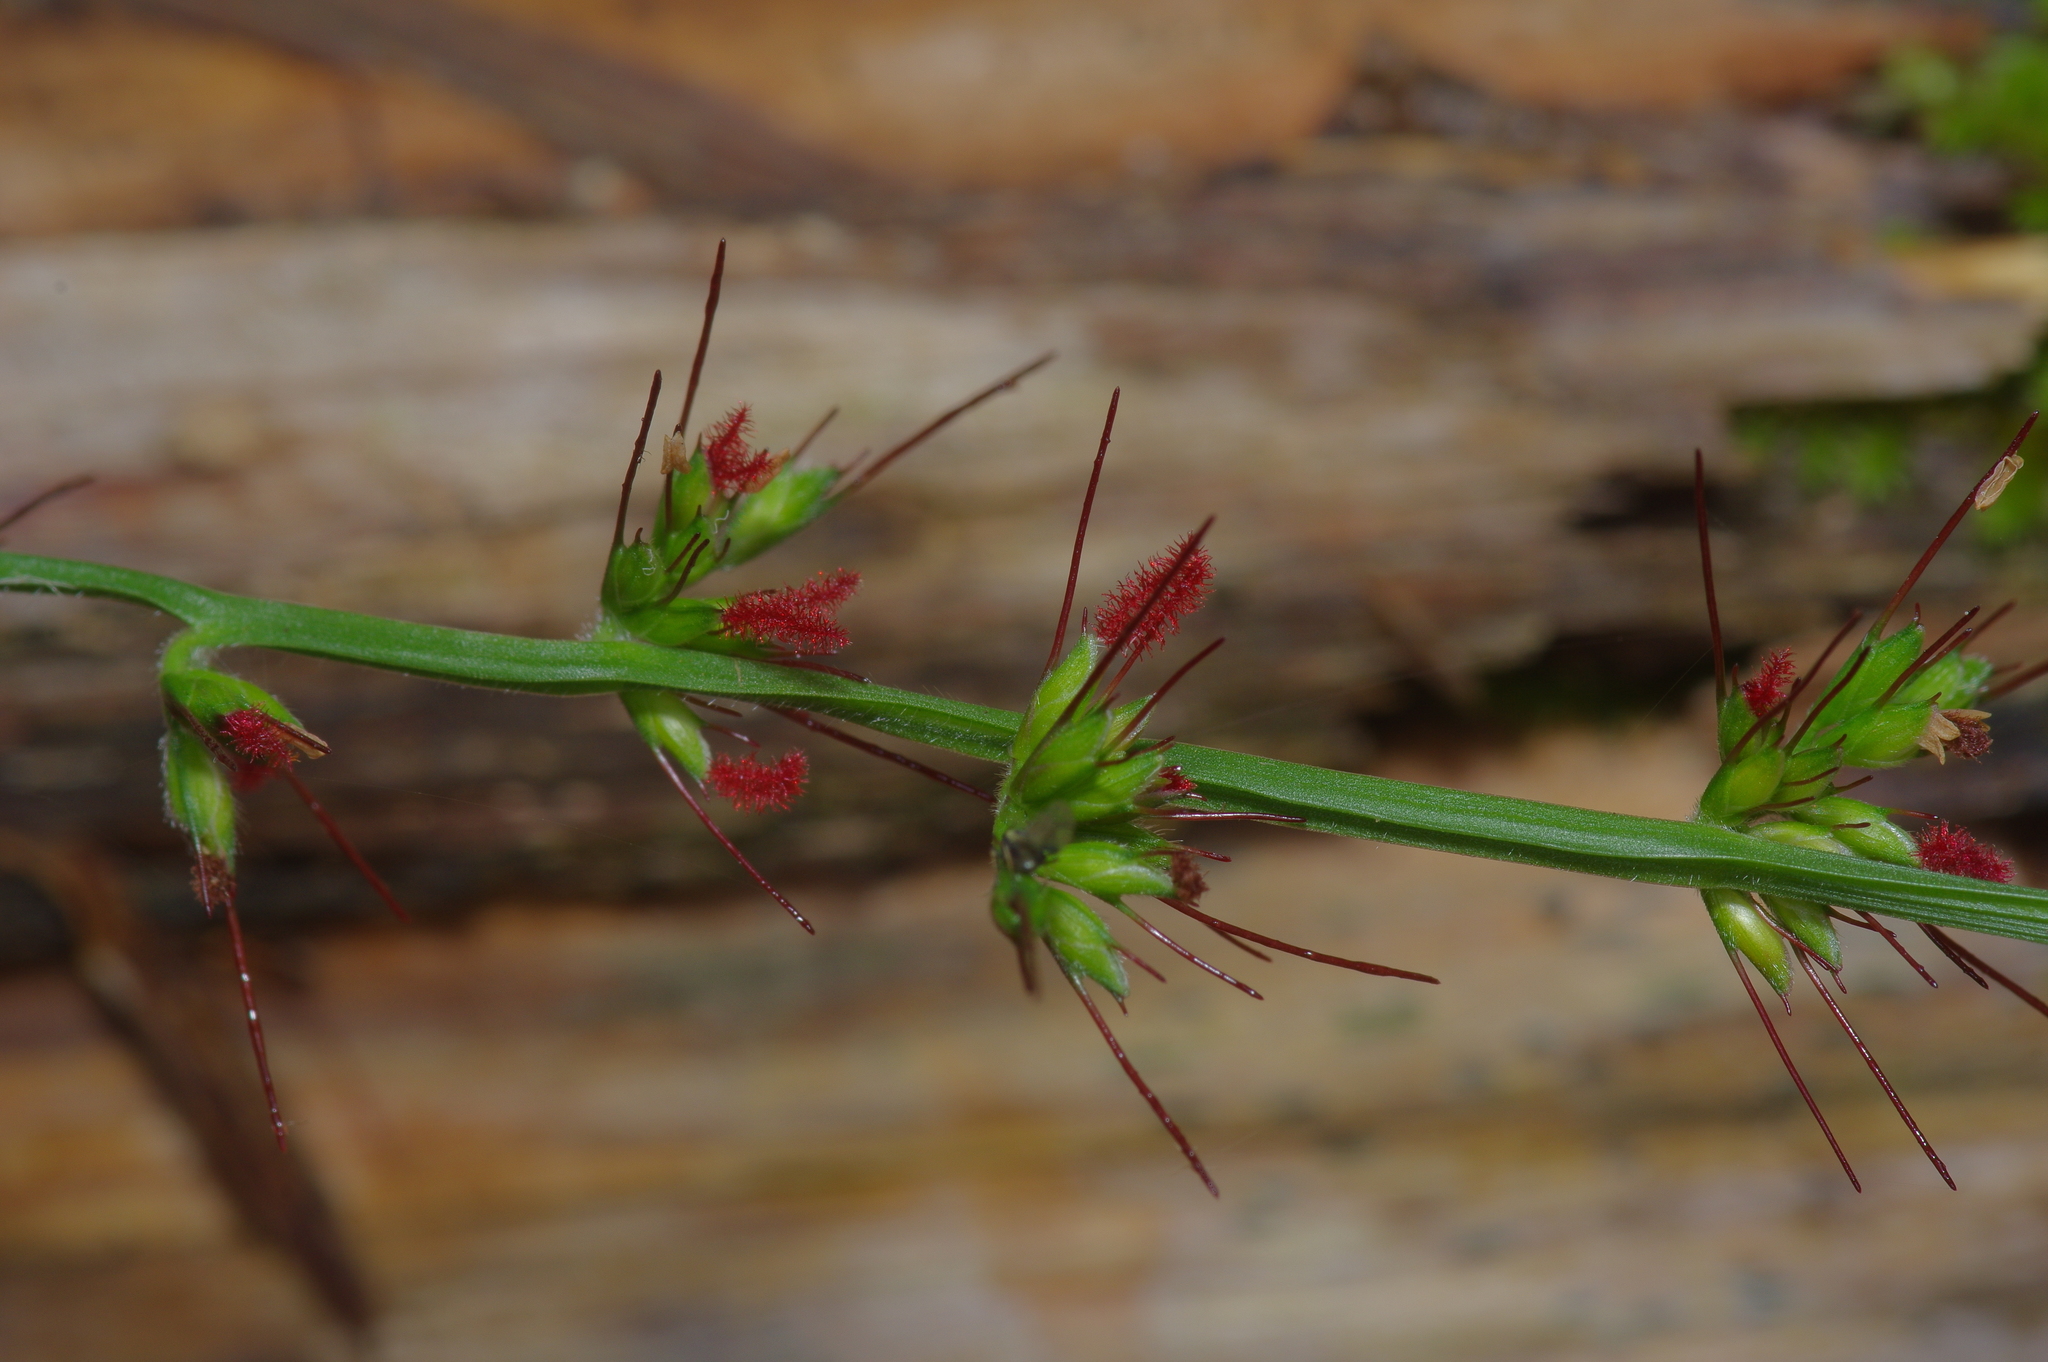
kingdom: Plantae
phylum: Tracheophyta
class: Liliopsida
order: Poales
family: Poaceae
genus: Oplismenus
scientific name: Oplismenus hirtellus
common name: Basketgrass
